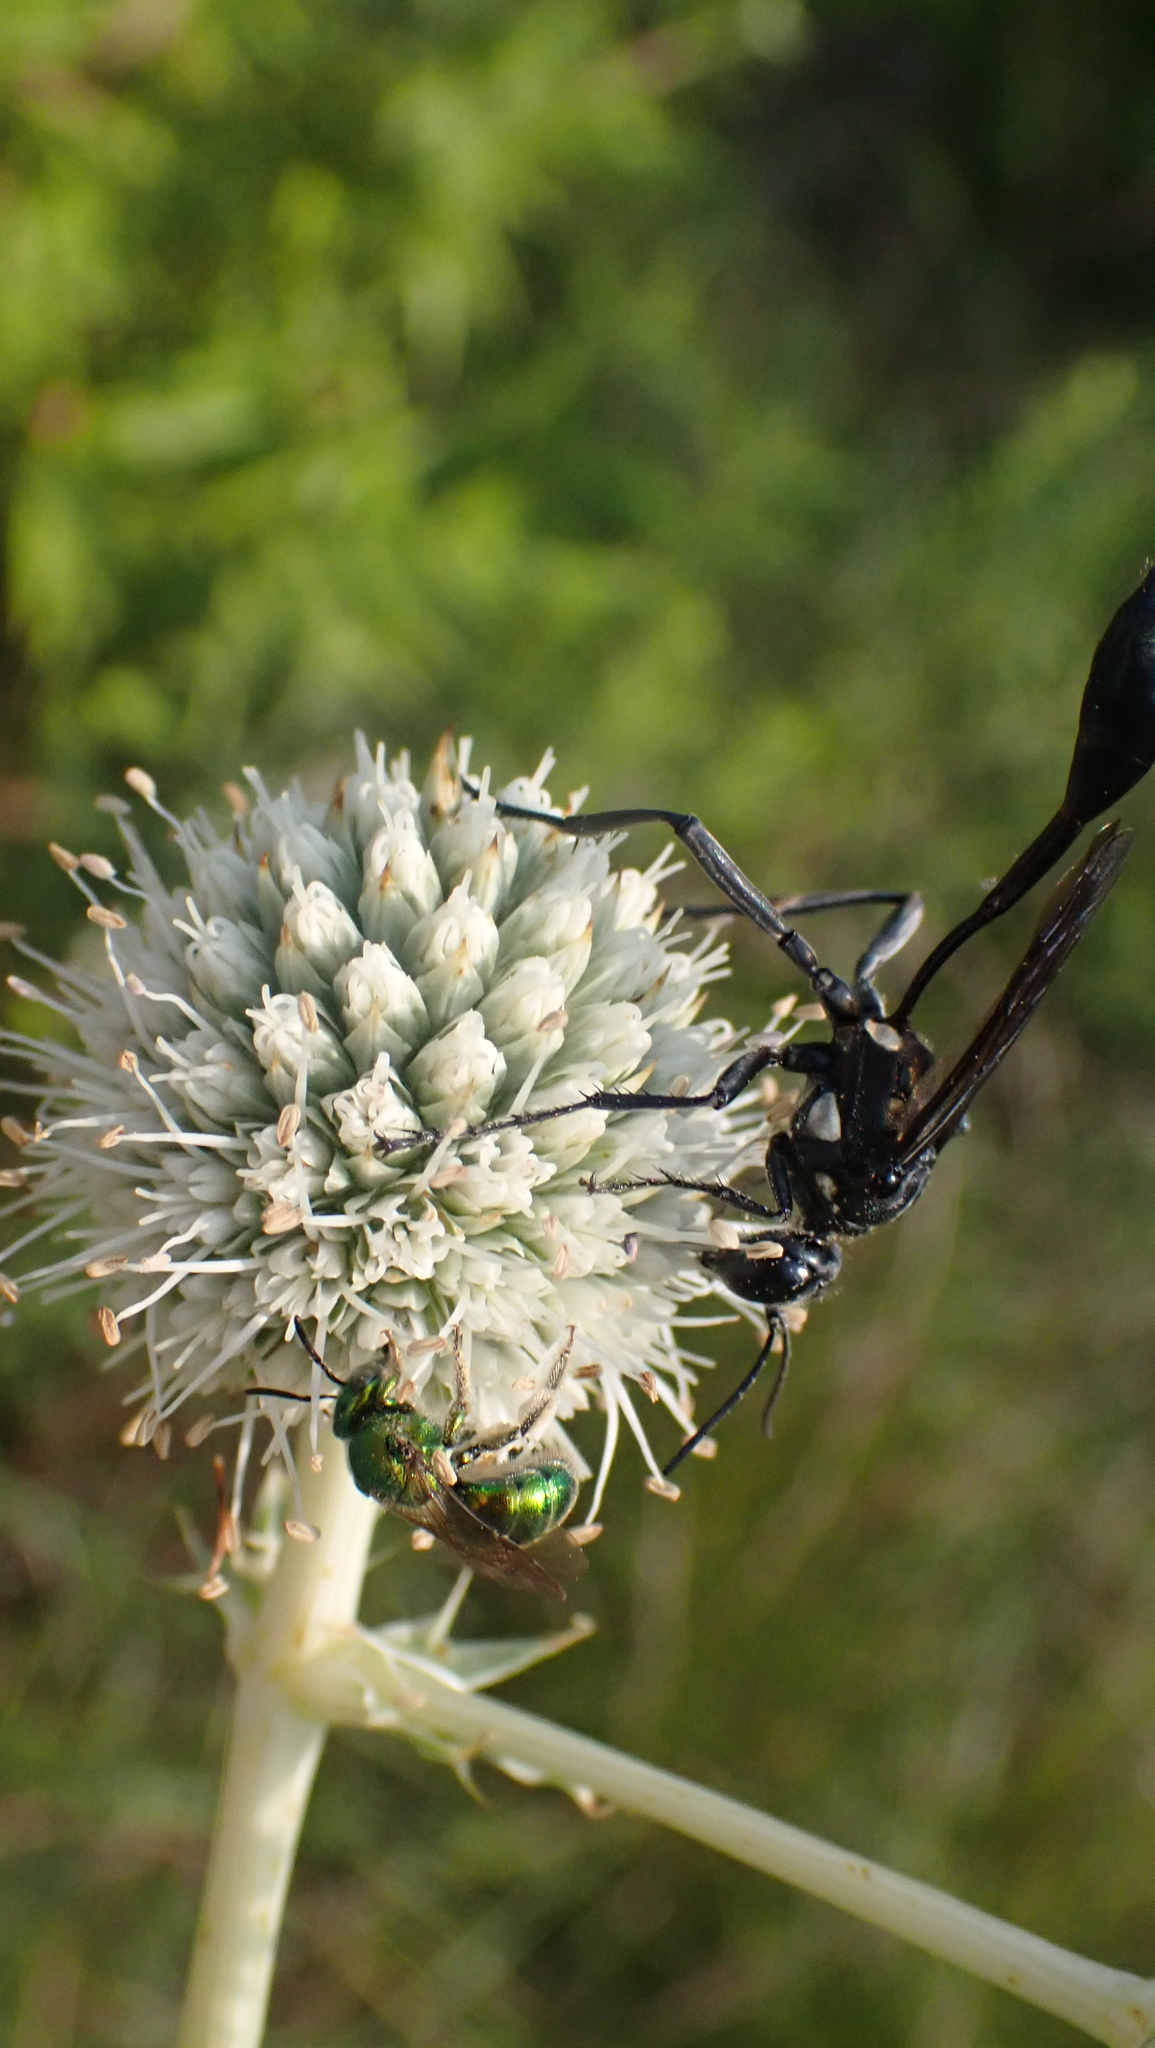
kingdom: Animalia
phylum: Arthropoda
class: Insecta
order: Hymenoptera
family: Sphecidae
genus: Eremnophila
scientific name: Eremnophila aureonotata
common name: Gold-marked thread-waisted wasp
